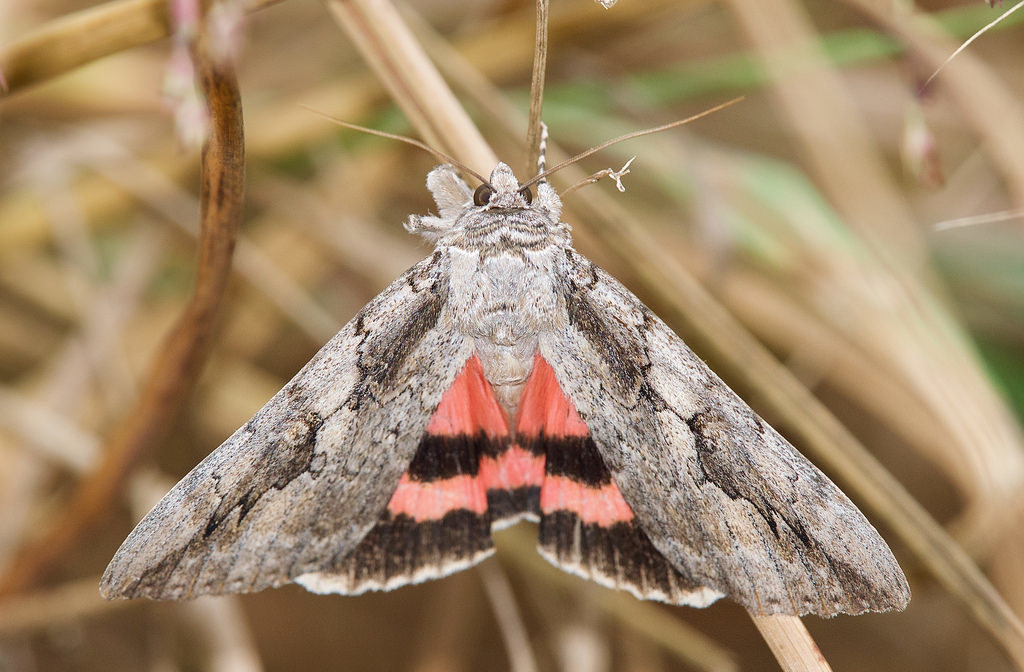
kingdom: Animalia
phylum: Arthropoda
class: Insecta
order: Lepidoptera
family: Erebidae
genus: Catocala
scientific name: Catocala amatrix
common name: Sweetheart underwing
